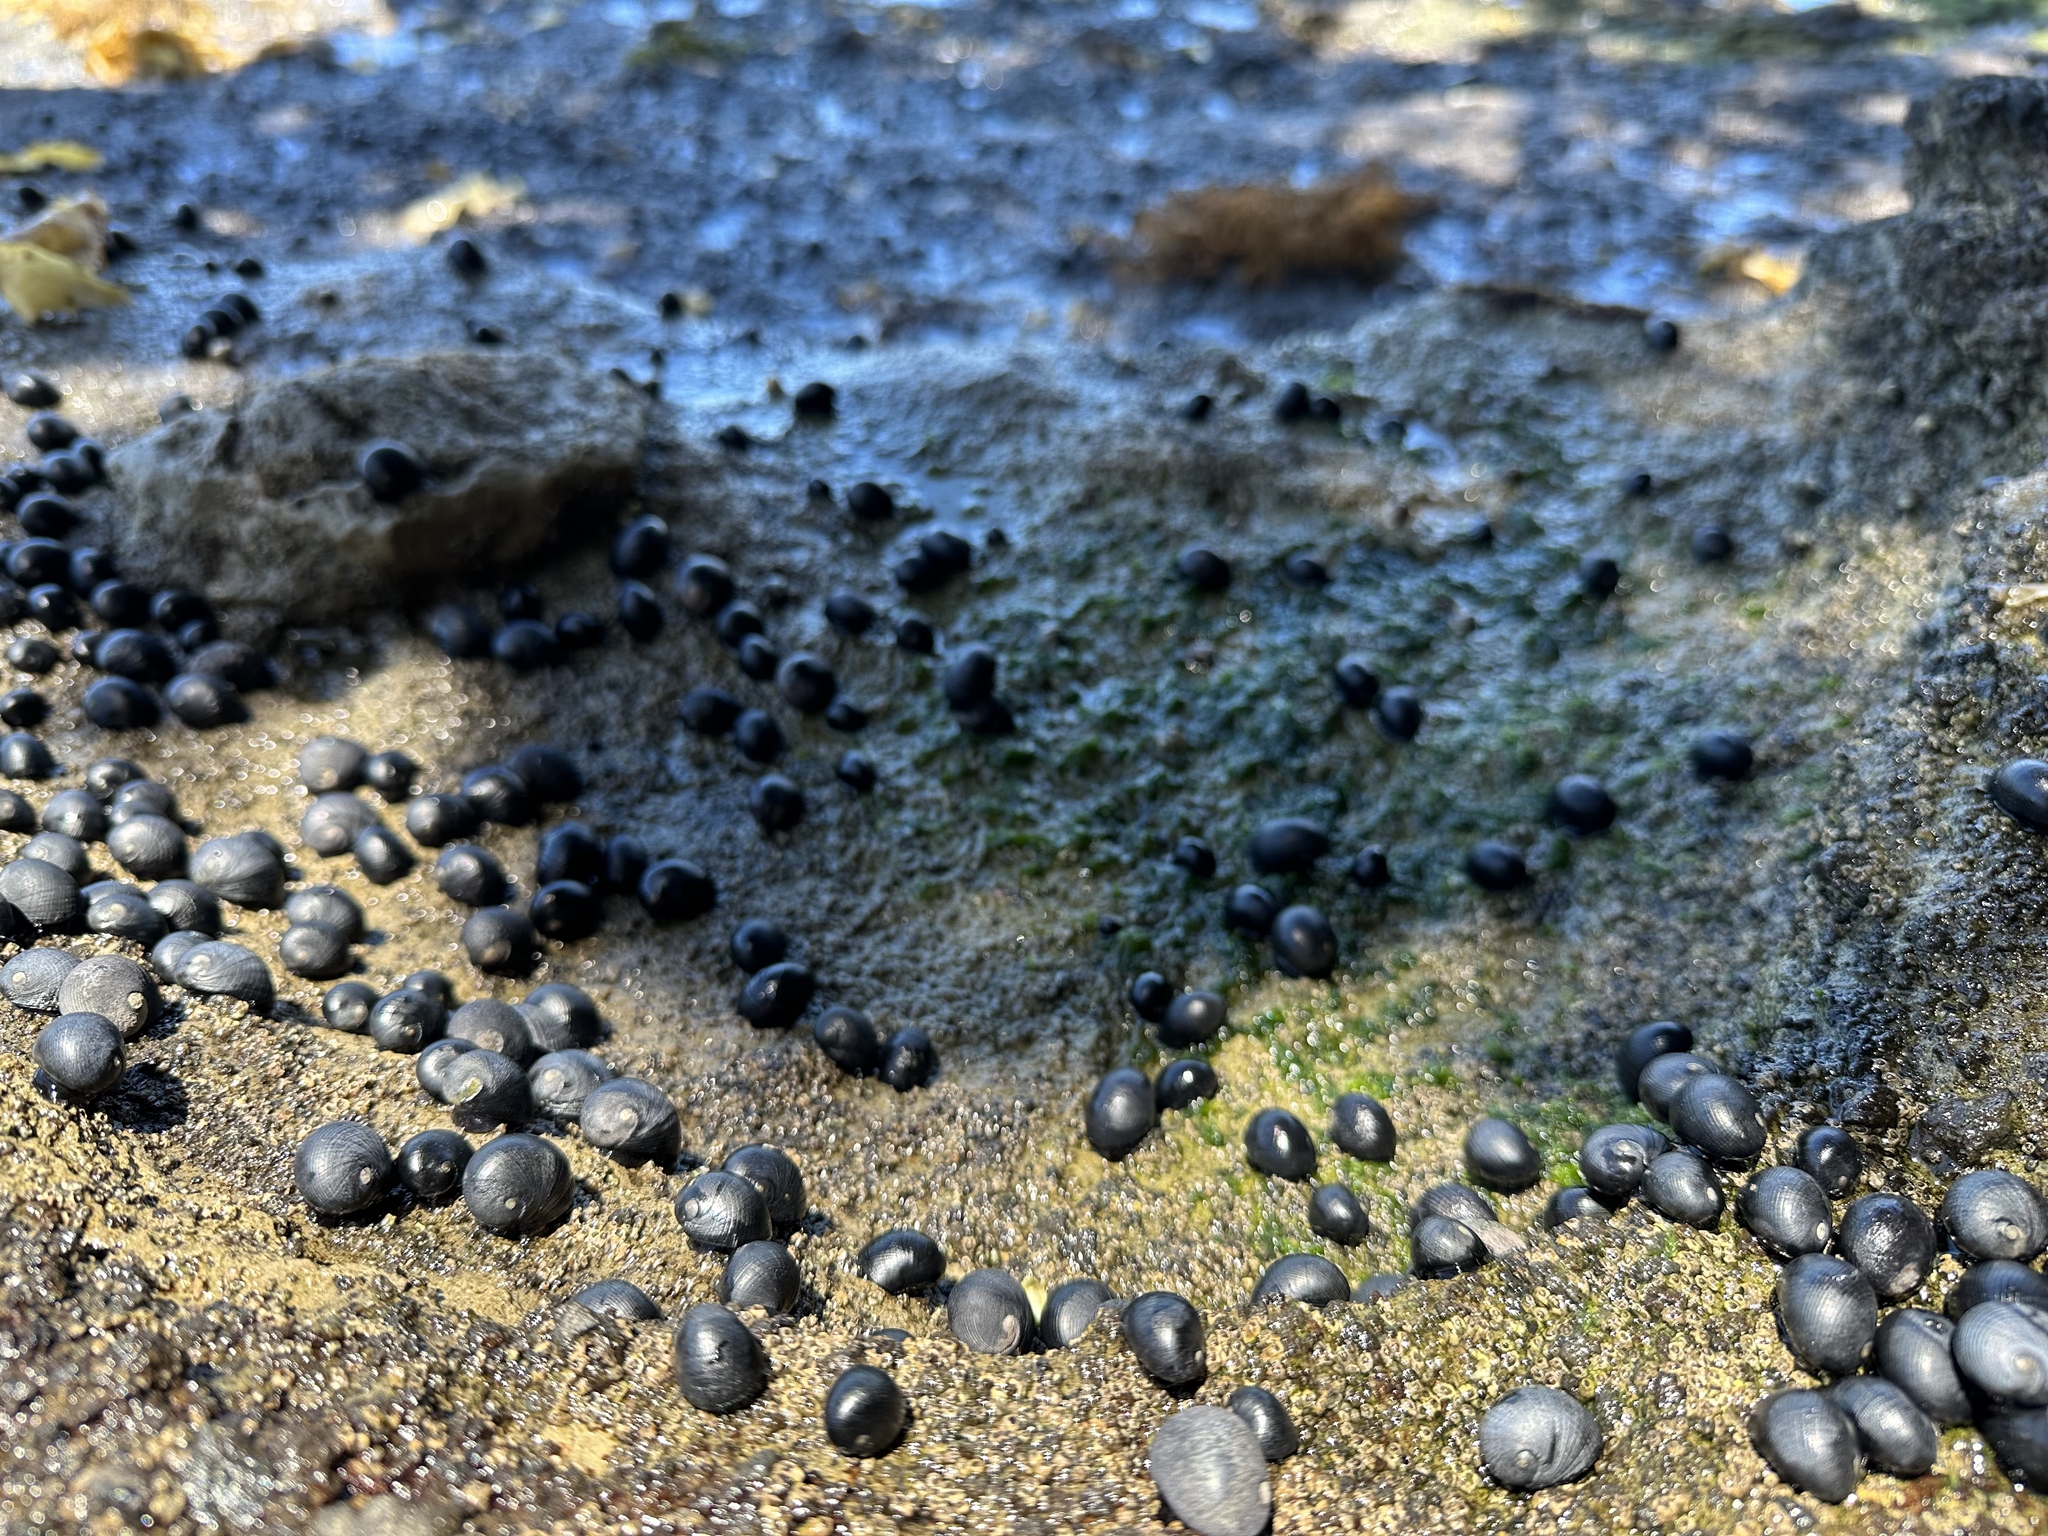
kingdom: Animalia
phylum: Mollusca
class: Gastropoda
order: Cycloneritida
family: Neritidae
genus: Nerita
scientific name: Nerita melanotragus
